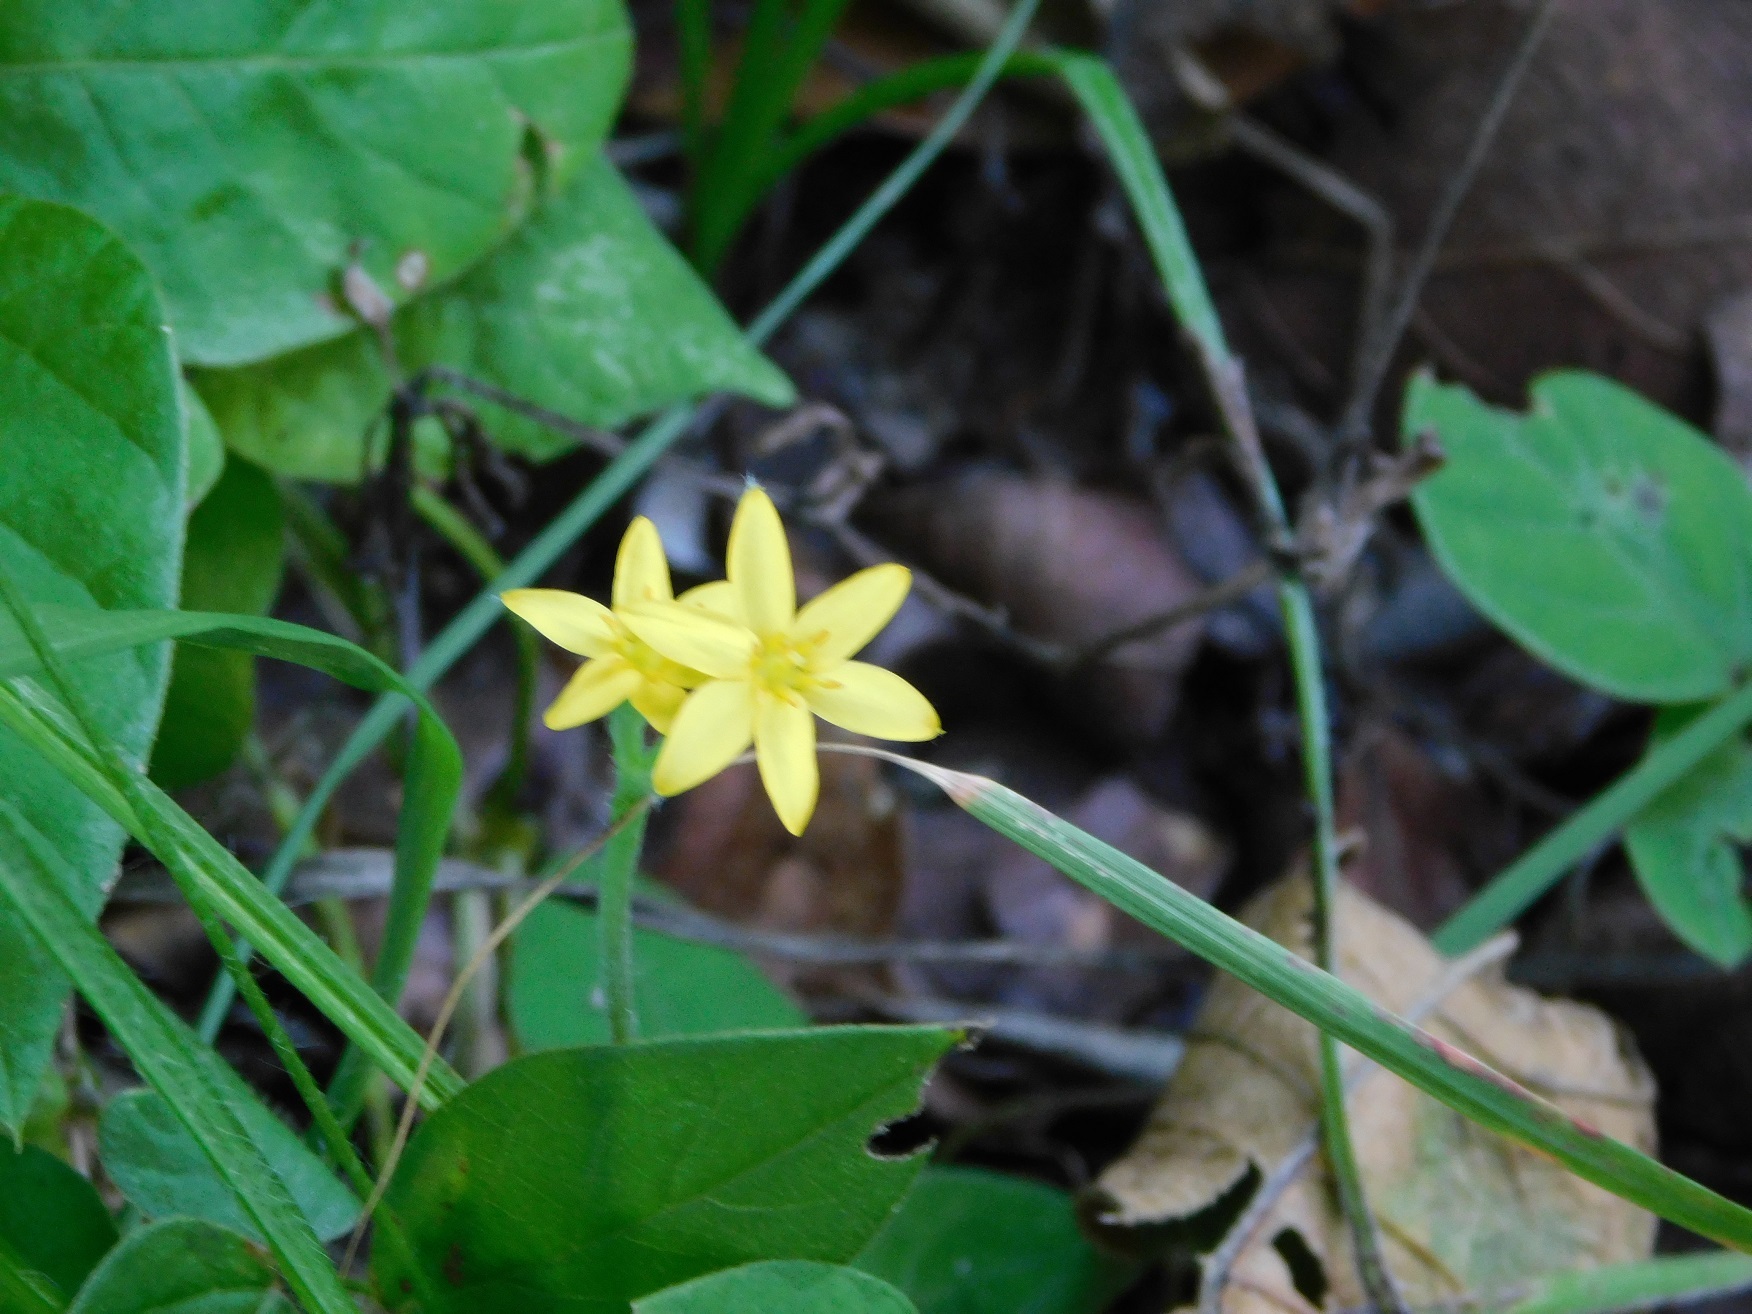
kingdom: Plantae
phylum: Tracheophyta
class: Liliopsida
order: Asparagales
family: Hypoxidaceae
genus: Hypoxis
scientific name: Hypoxis decumbens
